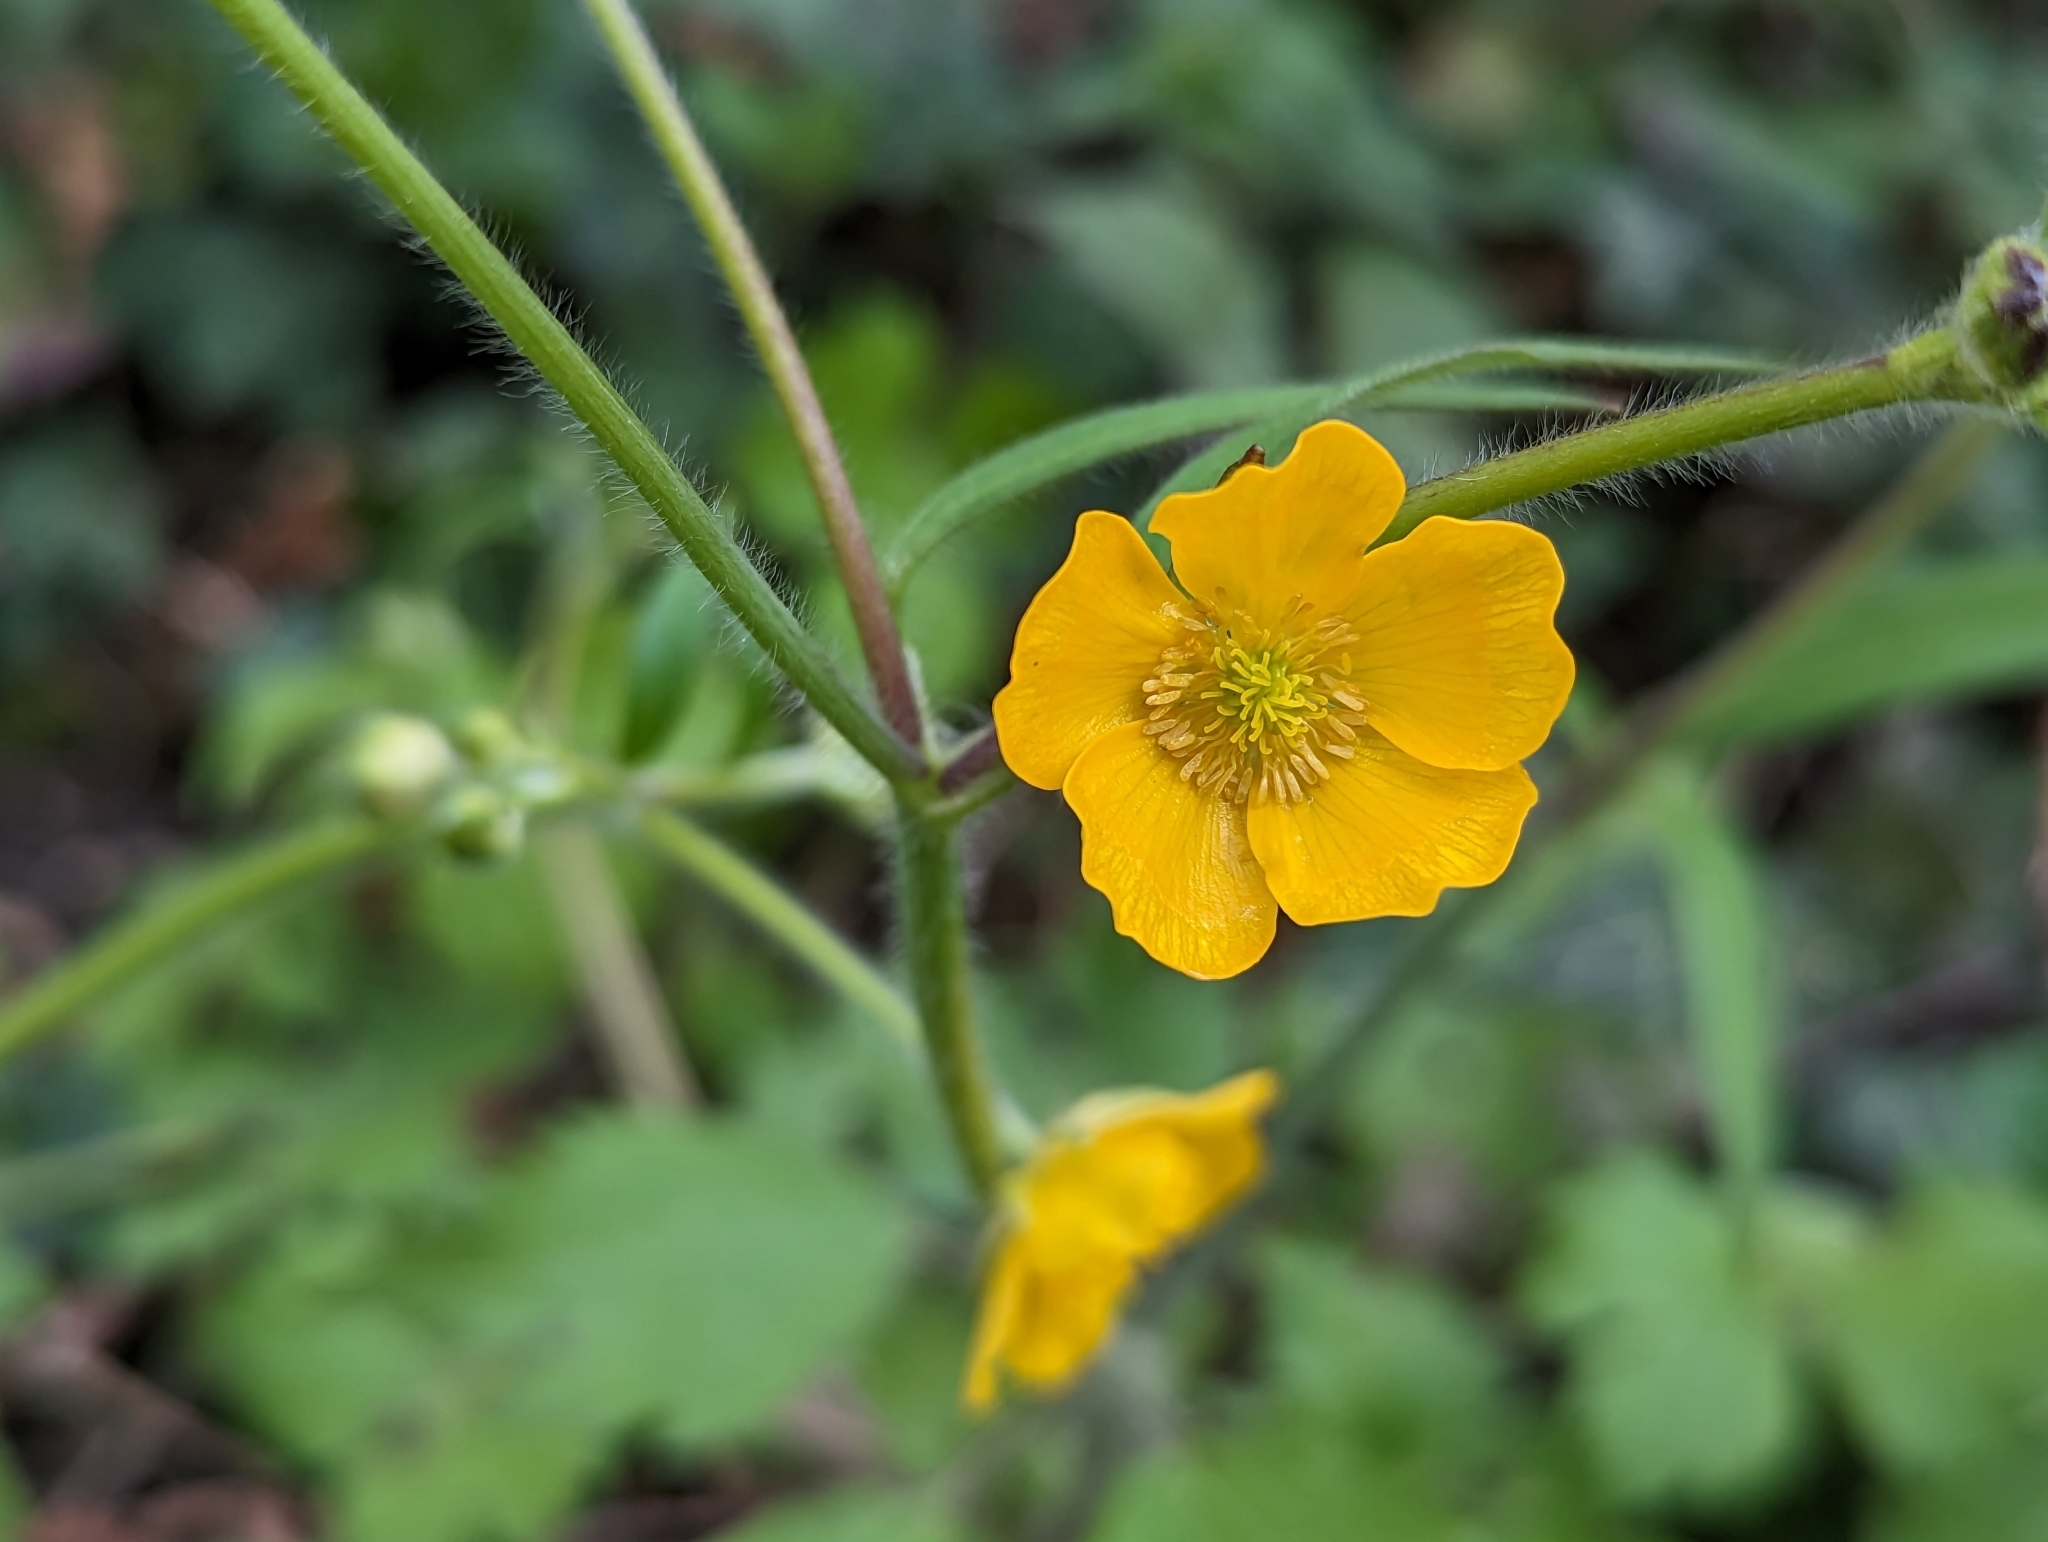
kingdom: Plantae
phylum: Tracheophyta
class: Magnoliopsida
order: Ranunculales
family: Ranunculaceae
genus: Ranunculus
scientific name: Ranunculus lanuginosus
